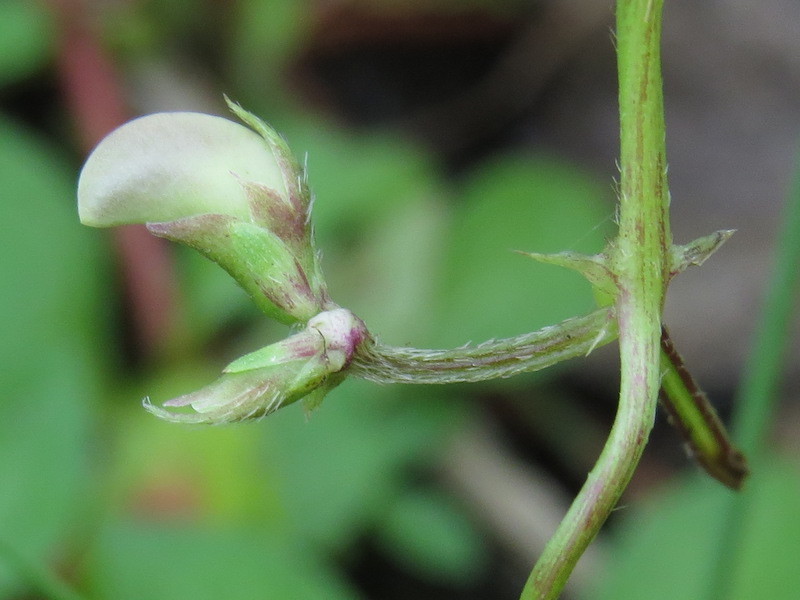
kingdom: Plantae
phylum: Tracheophyta
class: Magnoliopsida
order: Fabales
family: Fabaceae
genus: Strophostyles
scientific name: Strophostyles helvola
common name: Trailing wild bean
